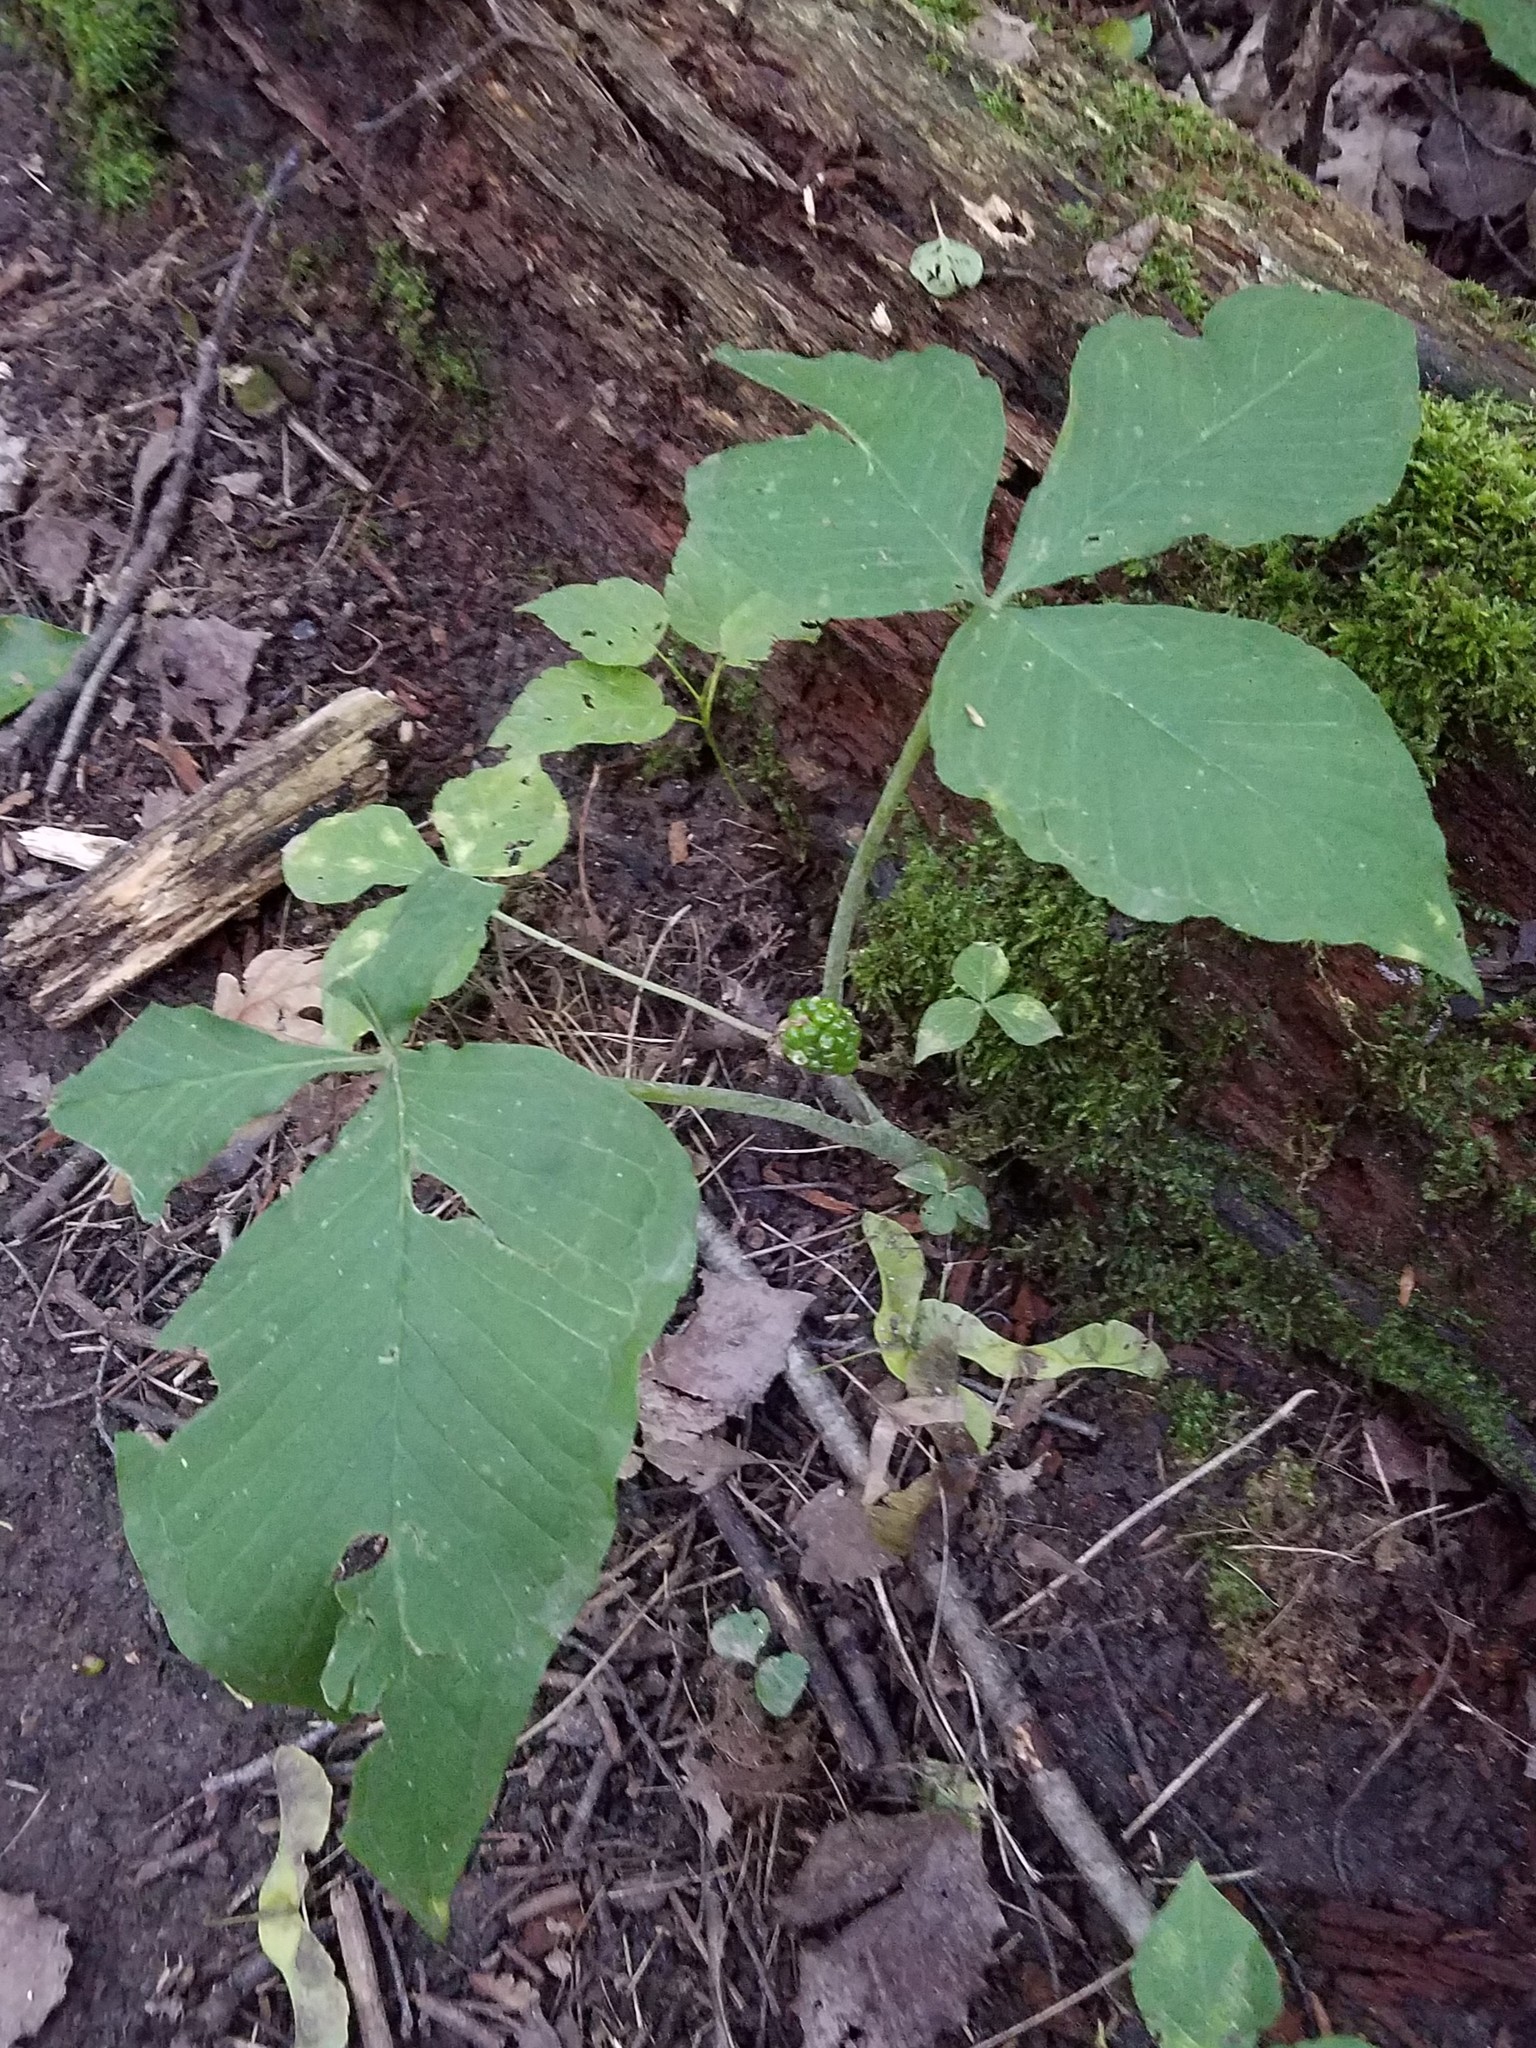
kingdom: Plantae
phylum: Tracheophyta
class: Liliopsida
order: Alismatales
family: Araceae
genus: Arisaema
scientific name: Arisaema triphyllum
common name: Jack-in-the-pulpit
